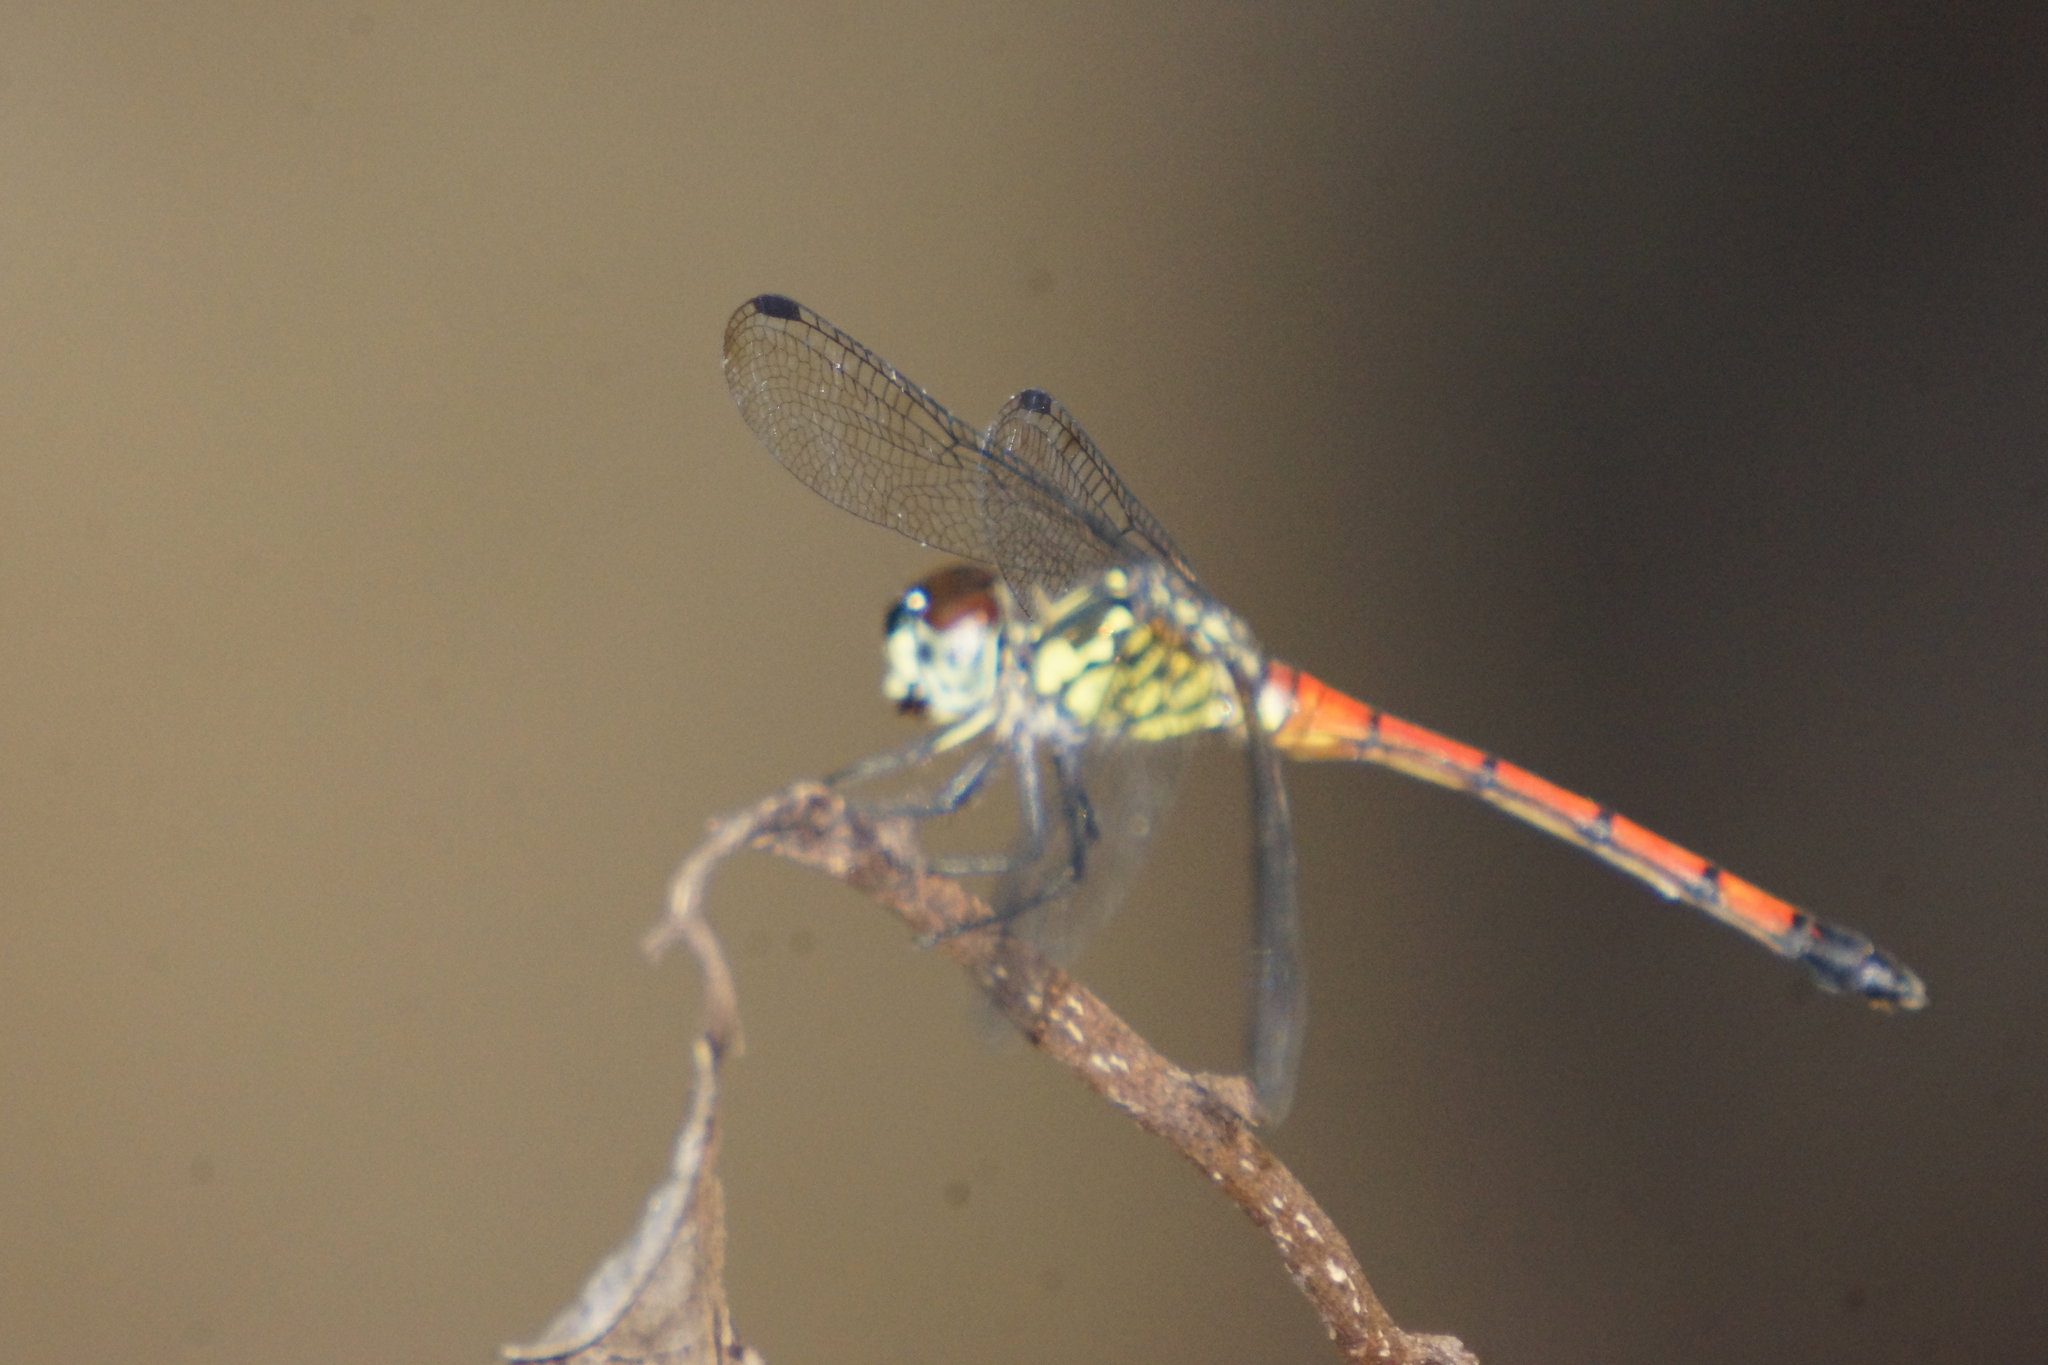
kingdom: Animalia
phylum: Arthropoda
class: Insecta
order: Odonata
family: Libellulidae
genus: Agrionoptera
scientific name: Agrionoptera insignis
